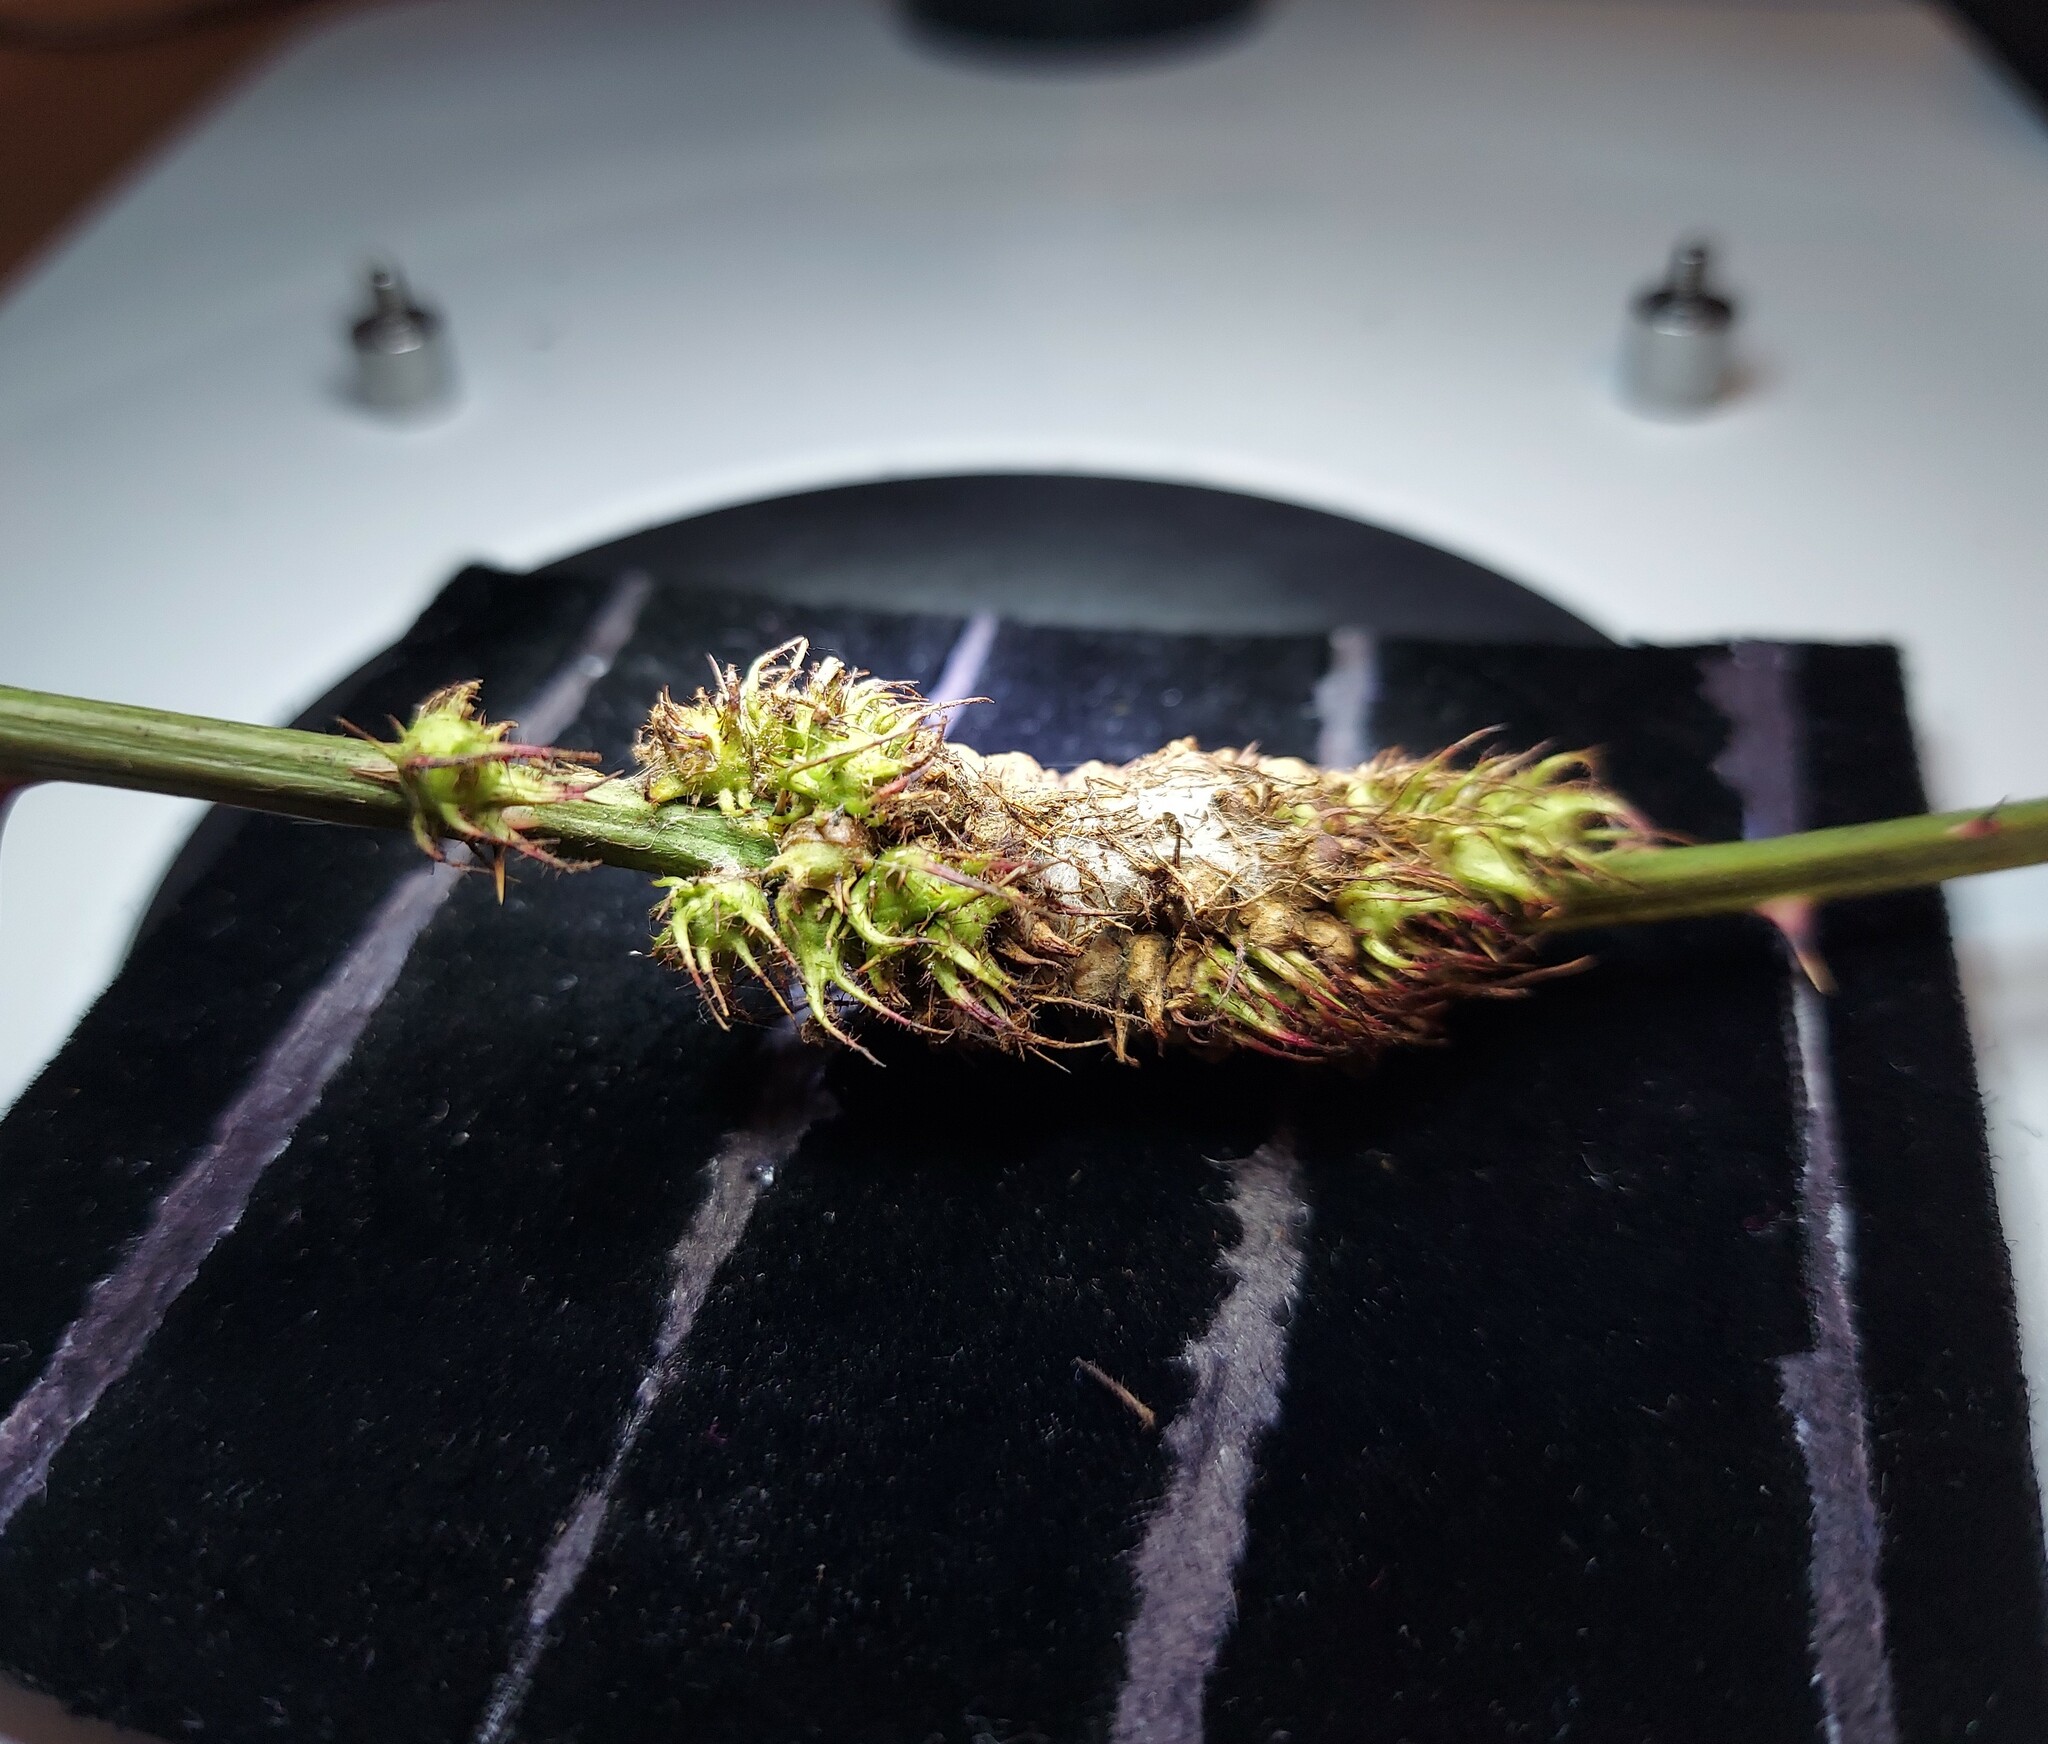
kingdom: Animalia
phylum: Arthropoda
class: Insecta
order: Hymenoptera
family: Cynipidae
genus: Diastrophus
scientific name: Diastrophus
